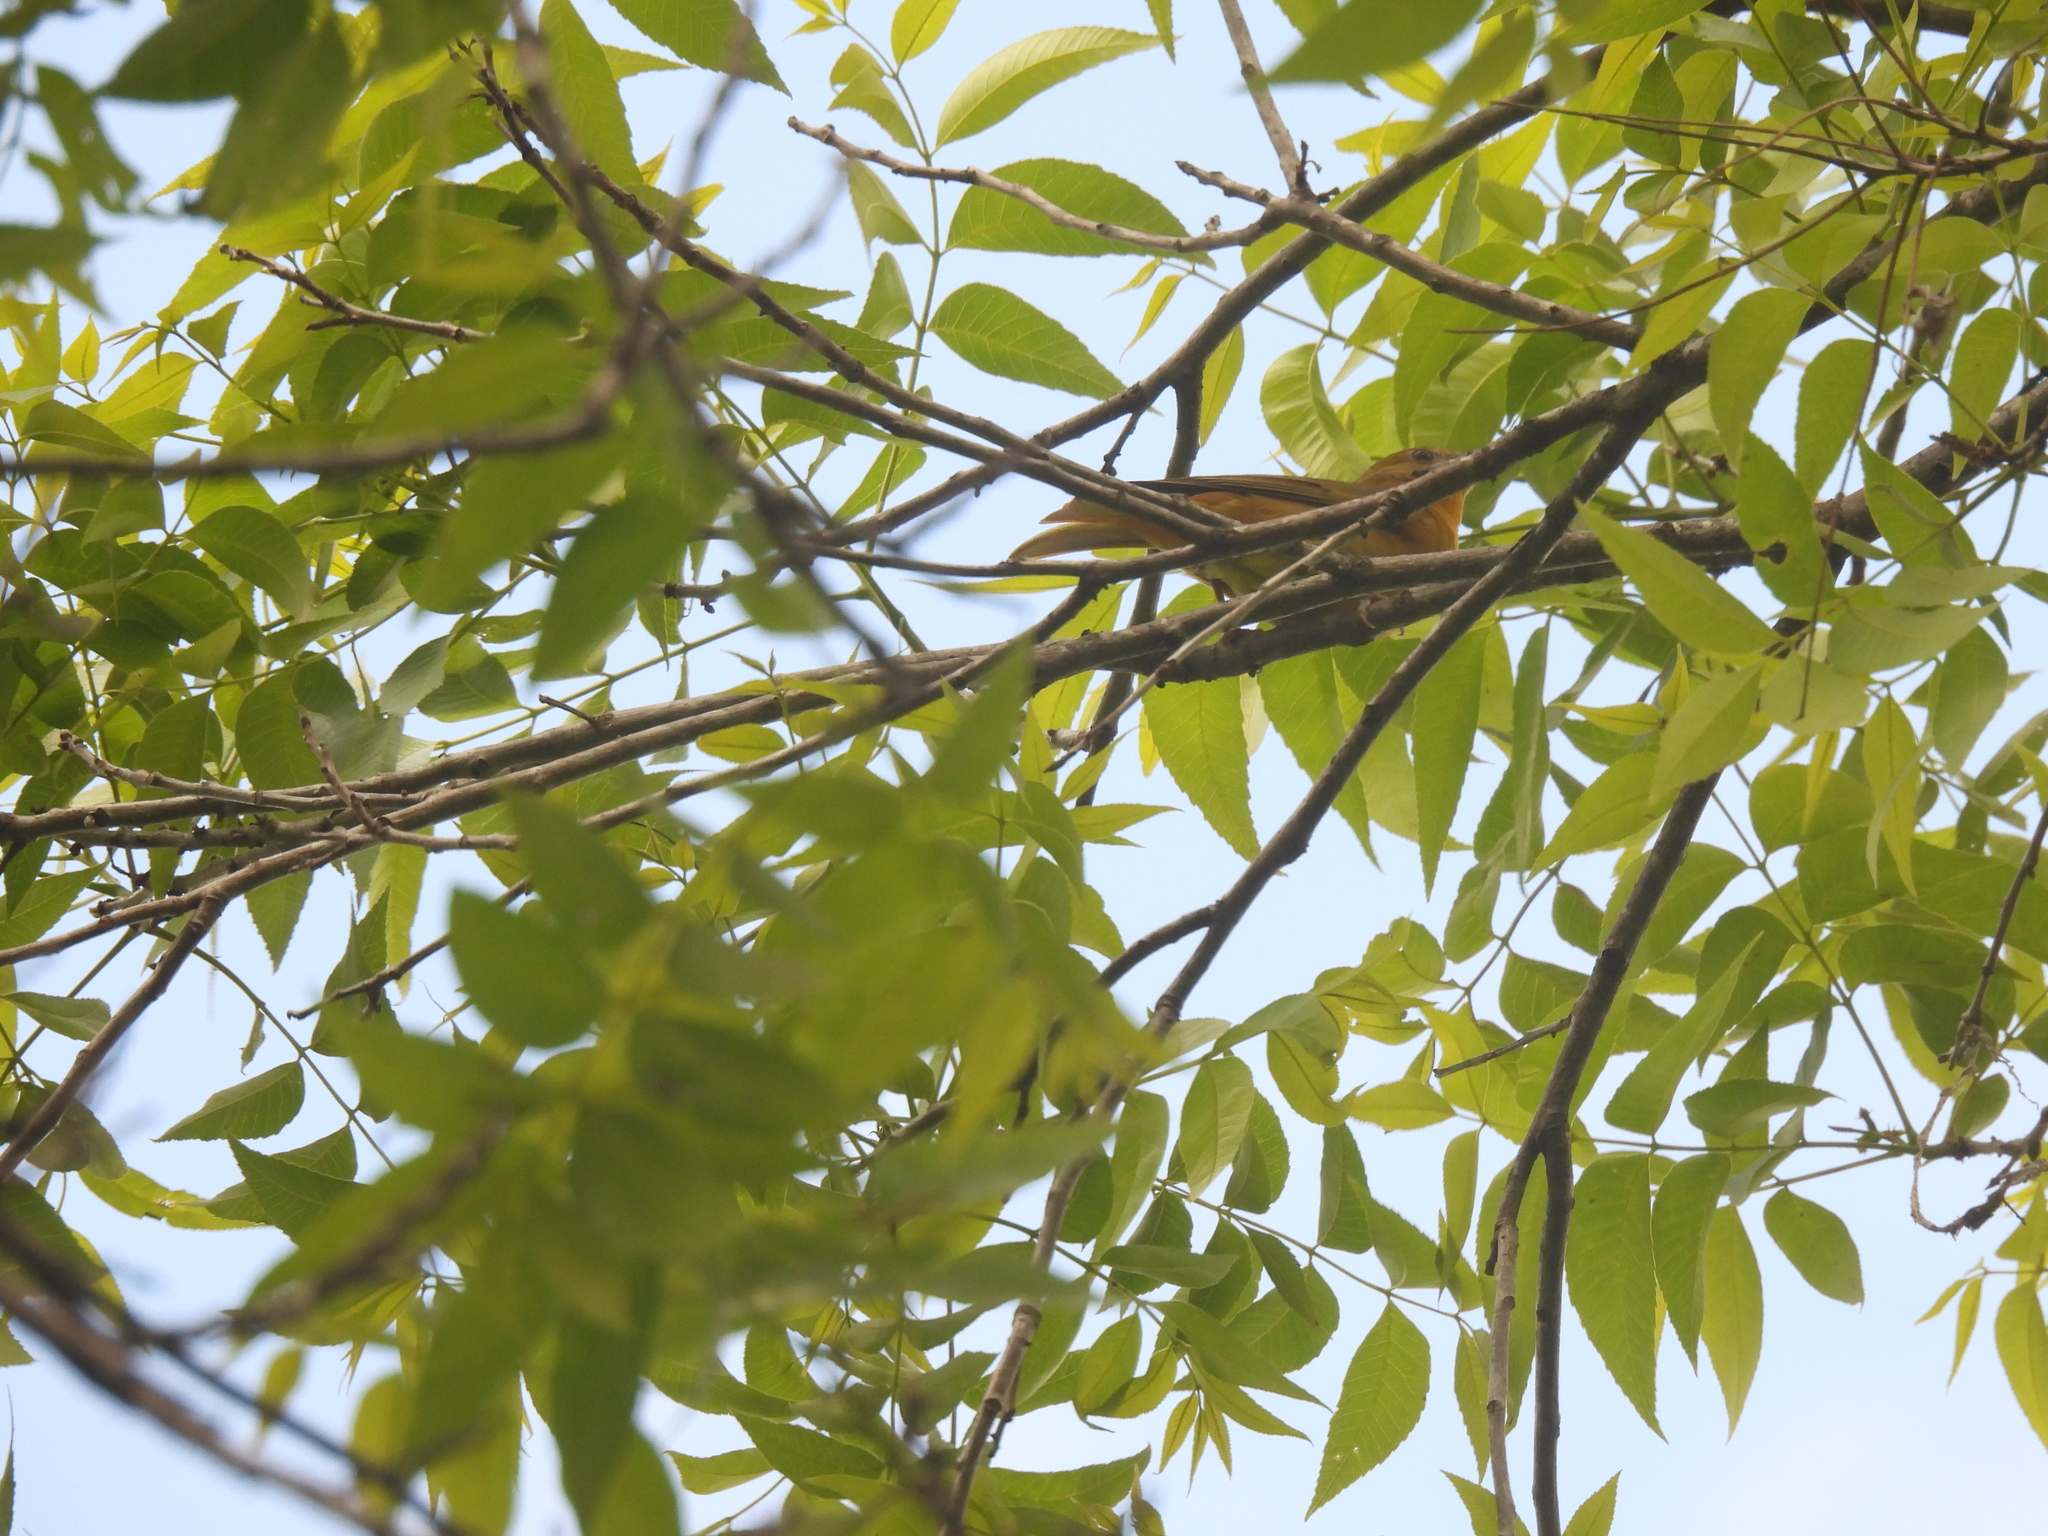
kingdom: Animalia
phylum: Chordata
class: Aves
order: Passeriformes
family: Cardinalidae
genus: Piranga
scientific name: Piranga rubra
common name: Summer tanager
